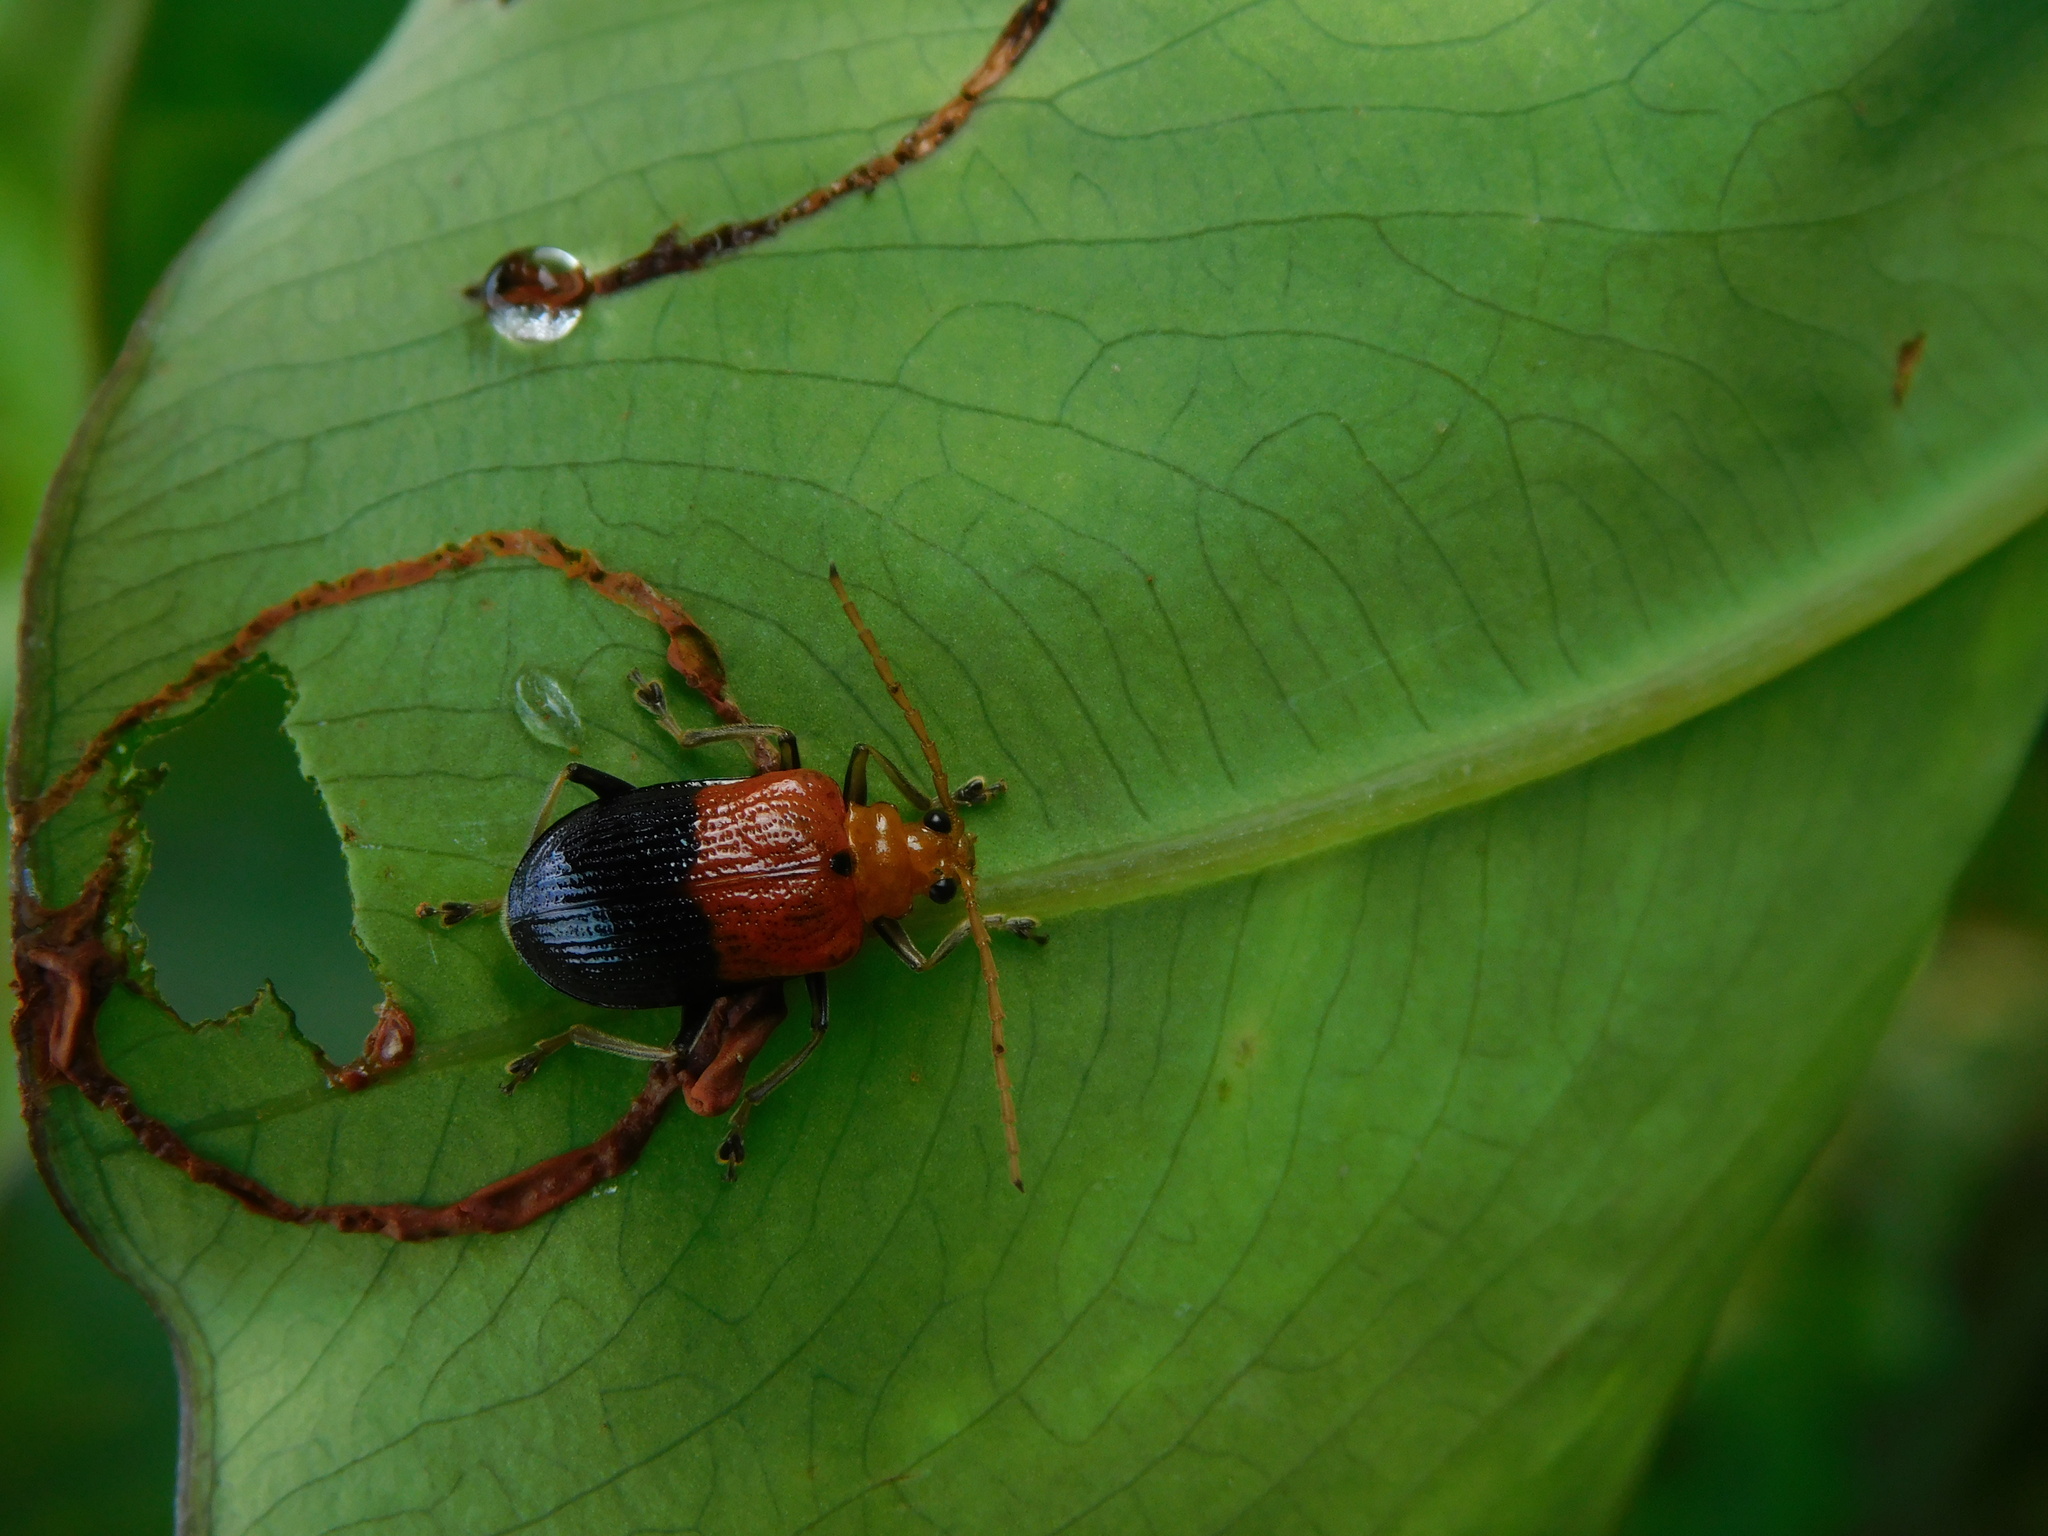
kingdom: Animalia
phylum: Arthropoda
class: Insecta
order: Coleoptera
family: Chrysomelidae
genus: Aplosonyx
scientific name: Aplosonyx
